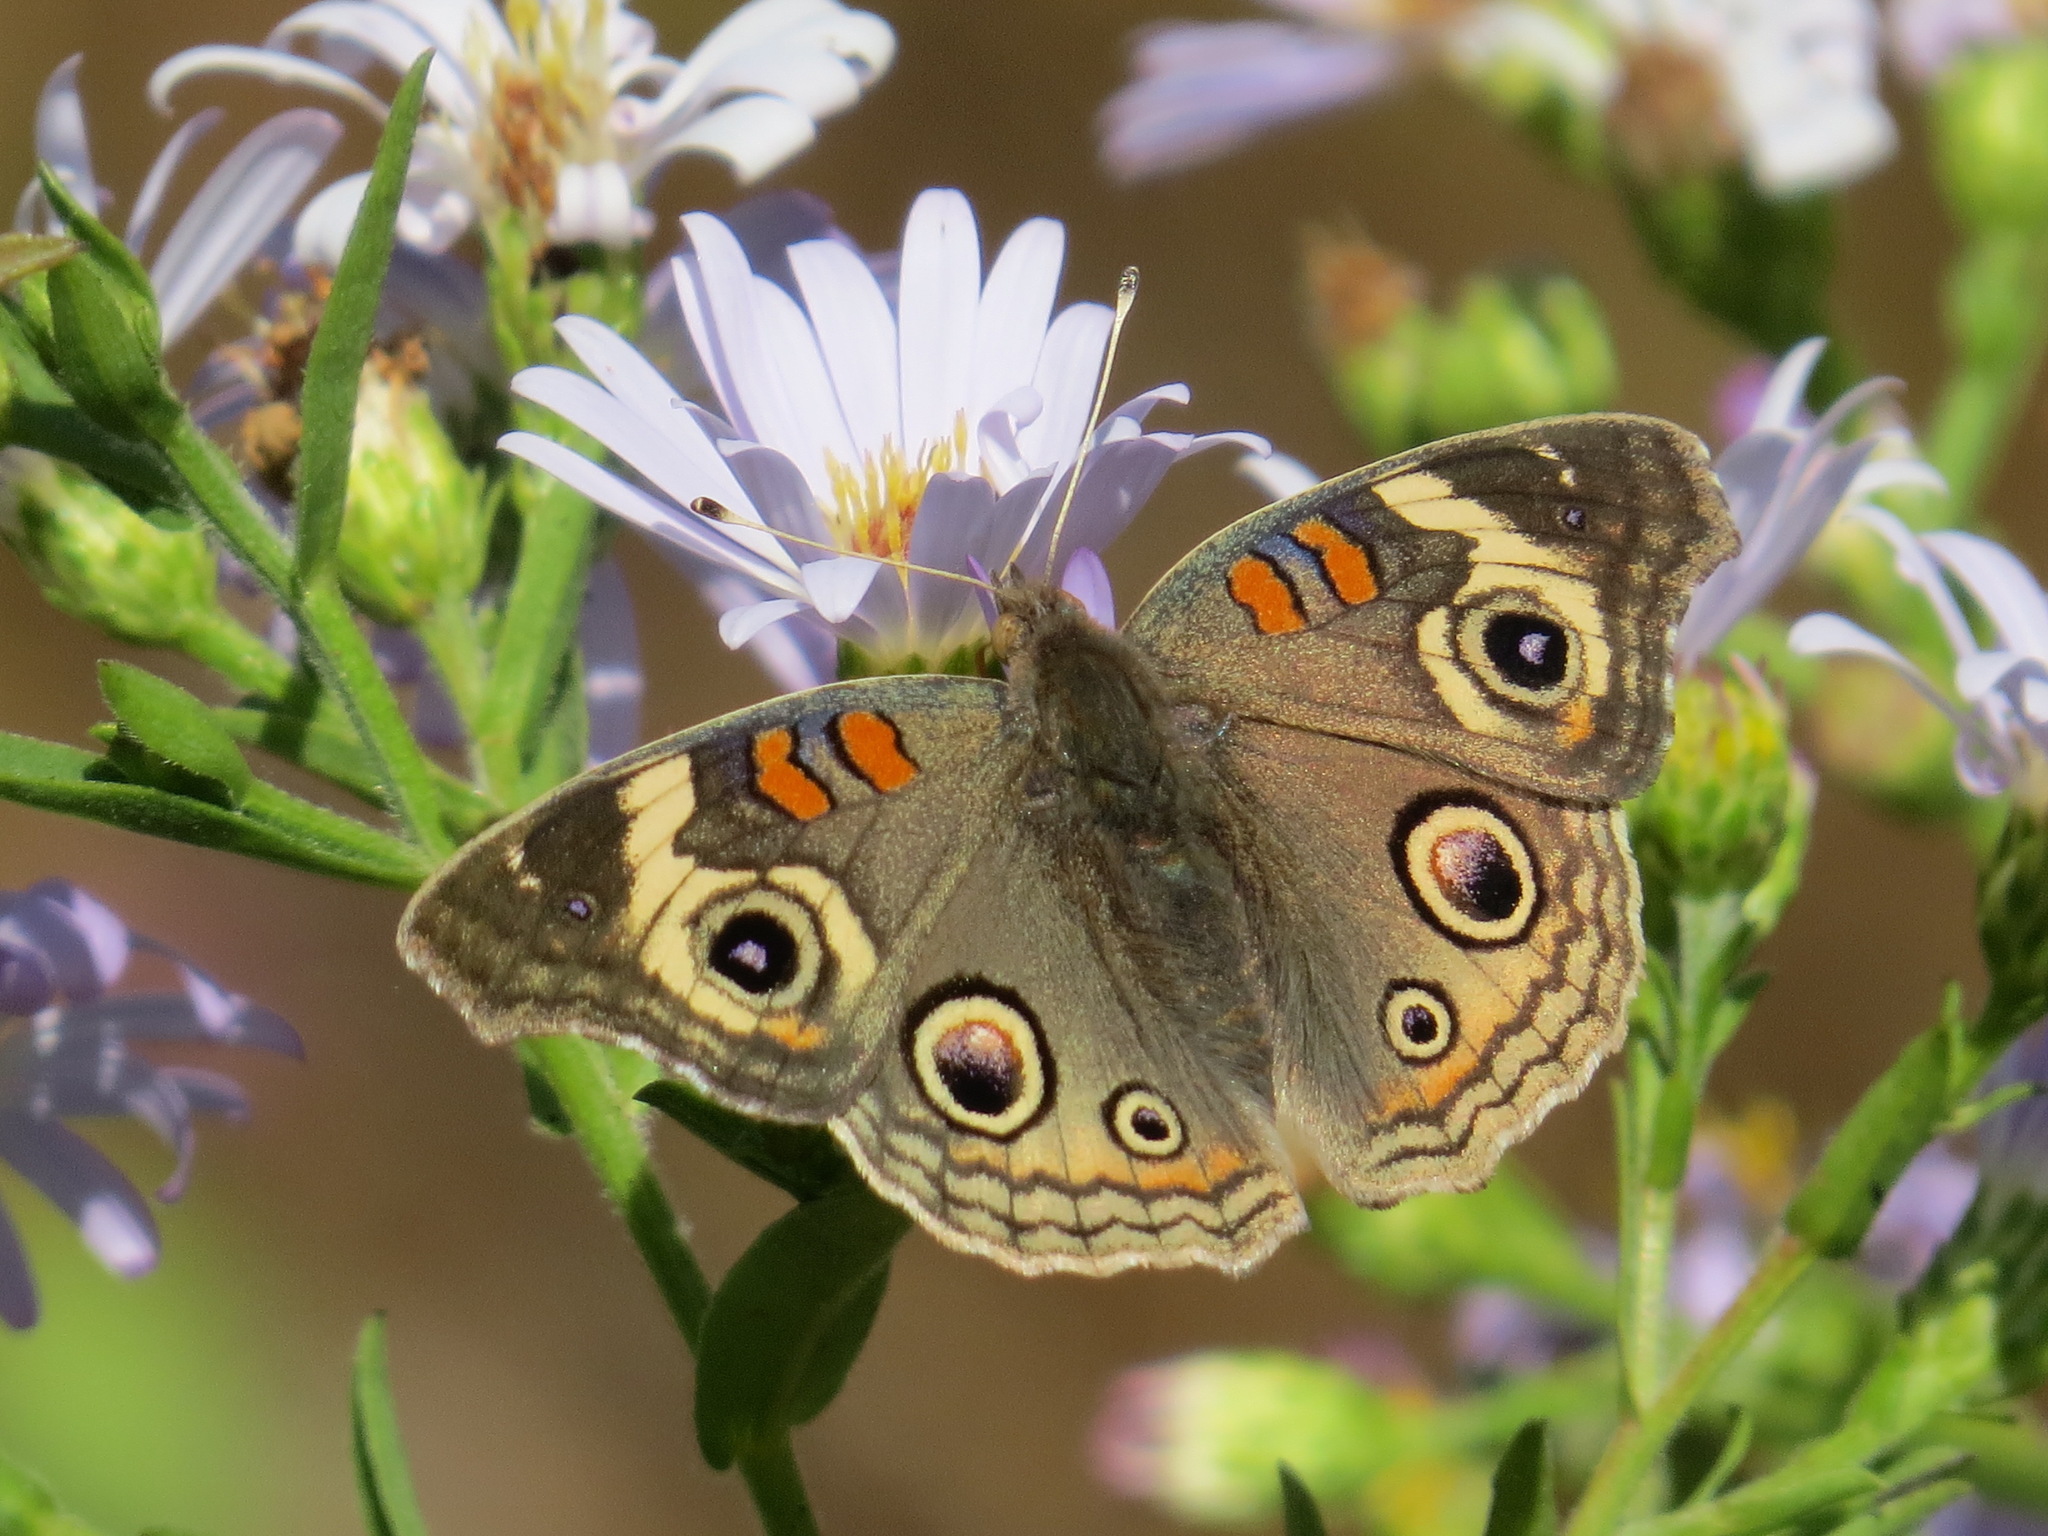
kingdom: Animalia
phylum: Arthropoda
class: Insecta
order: Lepidoptera
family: Nymphalidae
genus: Junonia
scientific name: Junonia grisea
